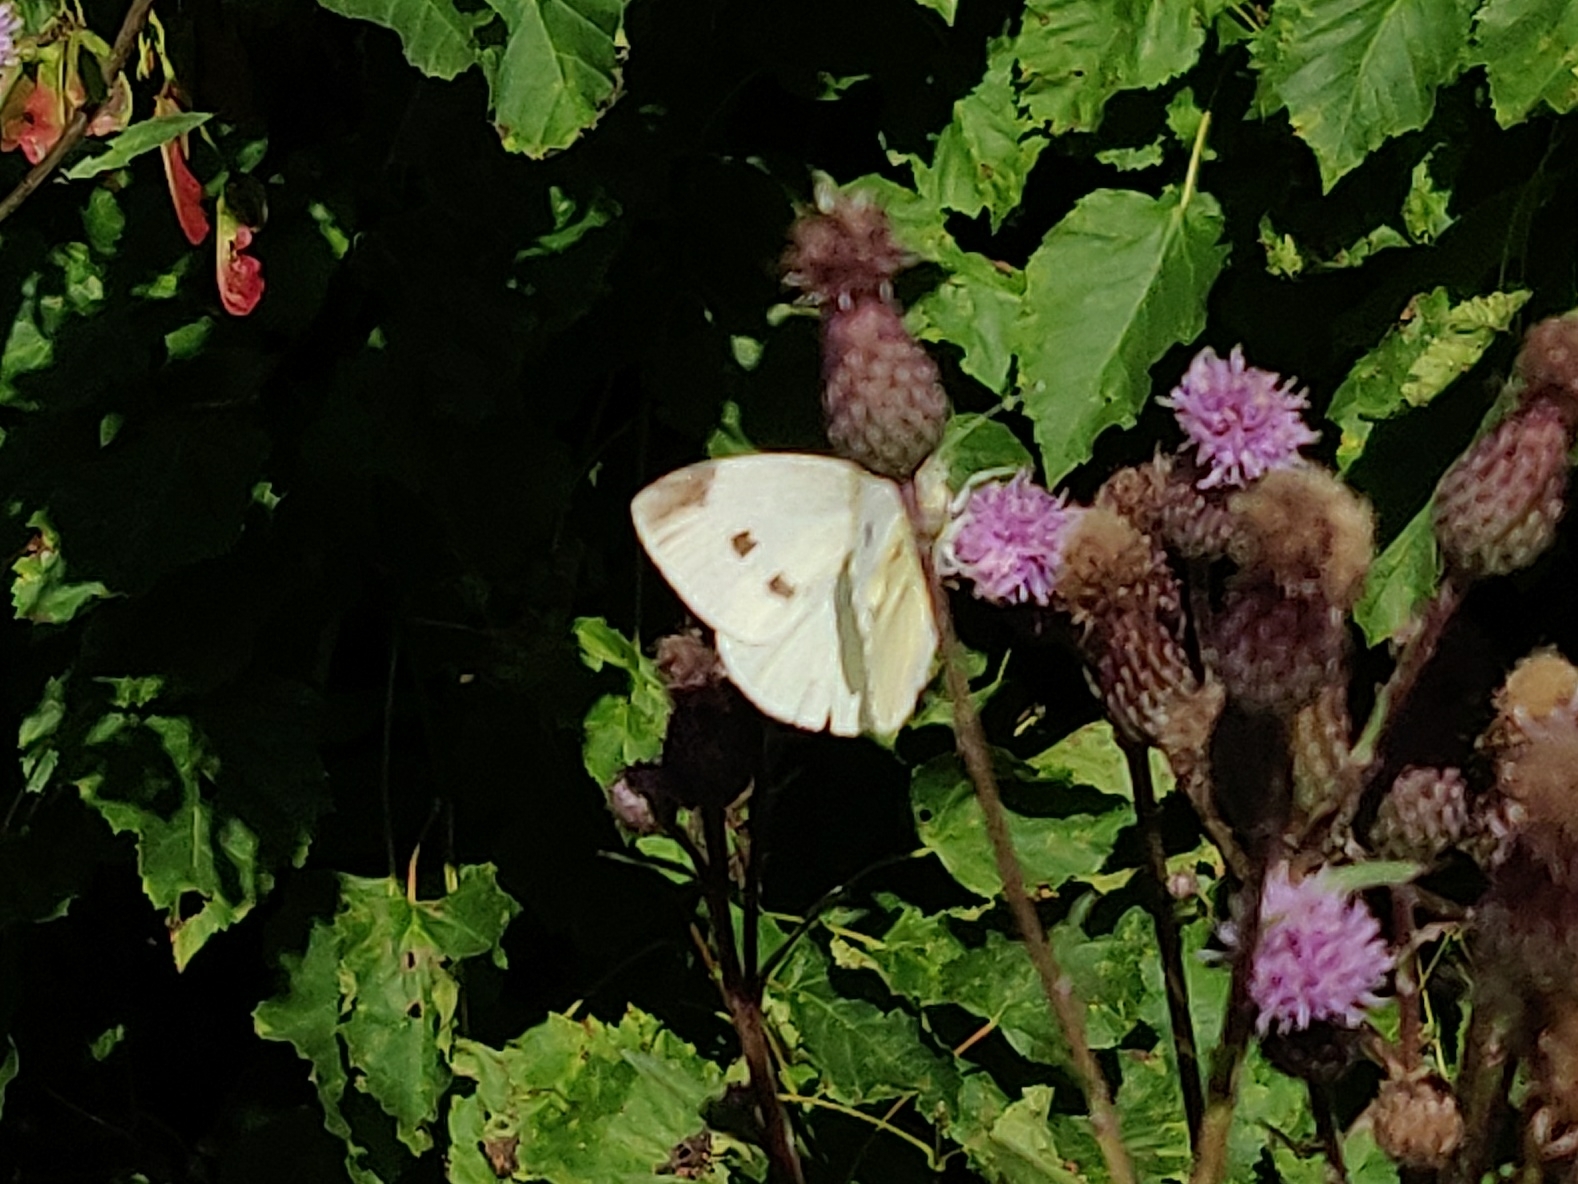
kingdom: Animalia
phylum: Arthropoda
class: Insecta
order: Lepidoptera
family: Pieridae
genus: Pieris
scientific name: Pieris rapae
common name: Small white
